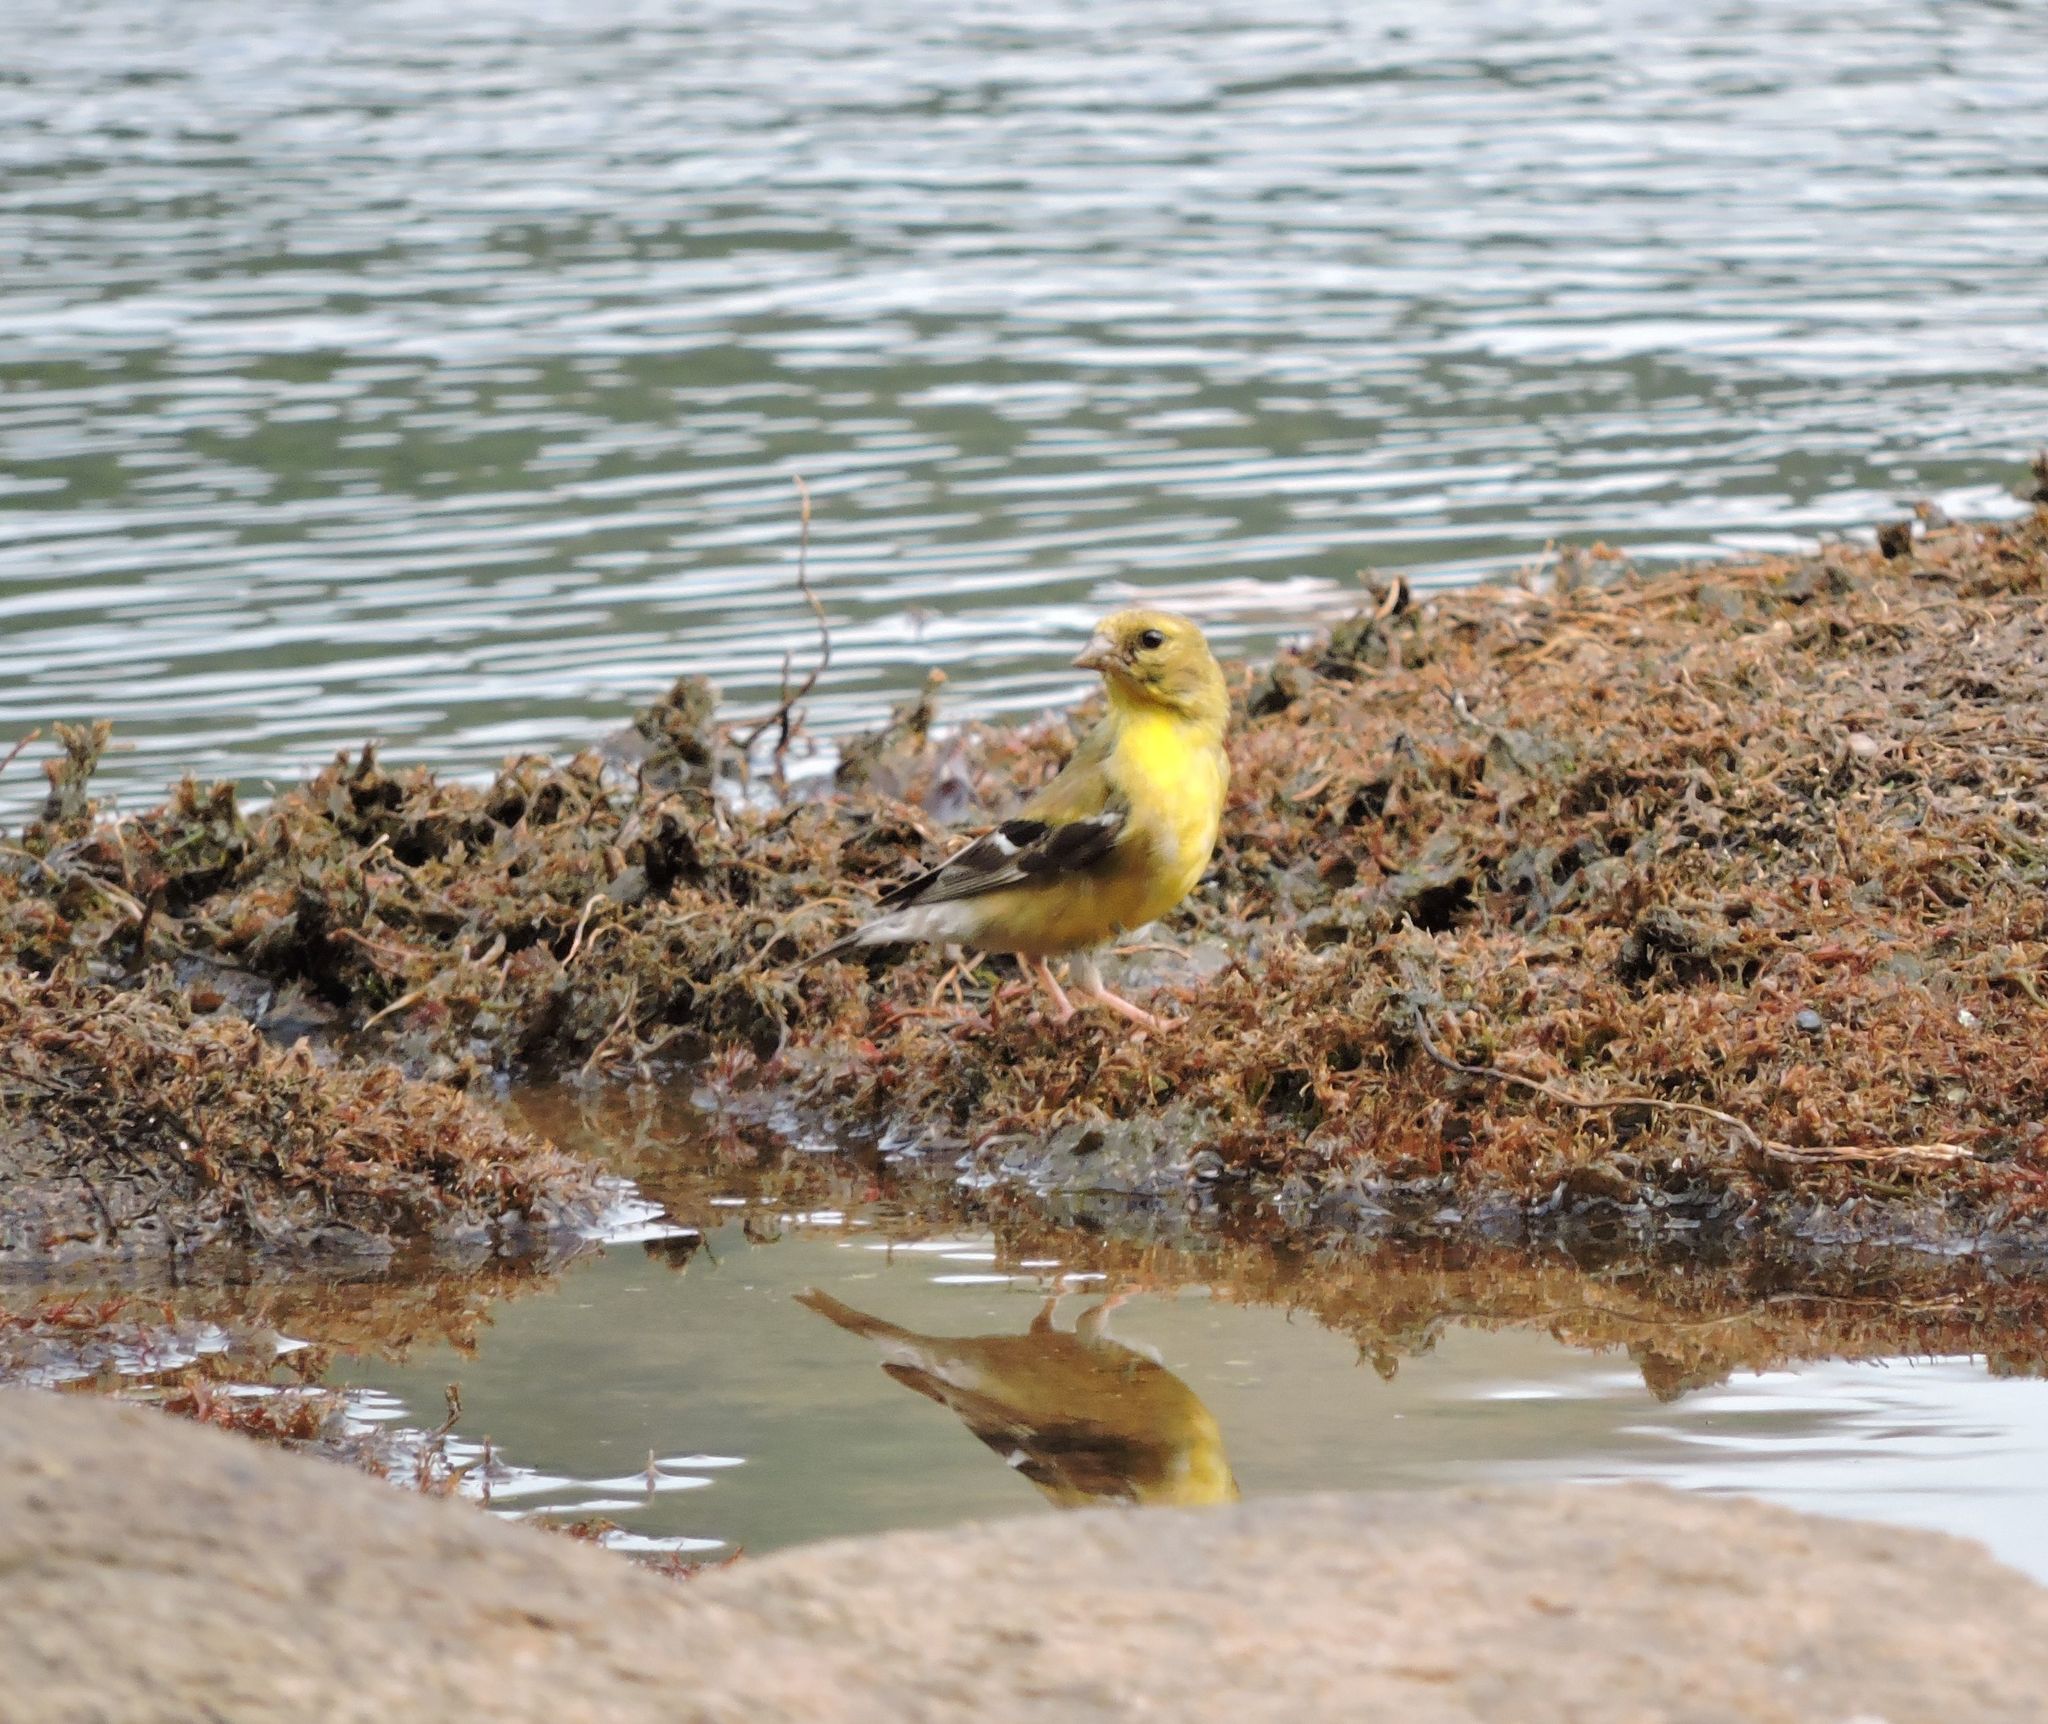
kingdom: Animalia
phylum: Chordata
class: Aves
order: Passeriformes
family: Fringillidae
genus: Spinus
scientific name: Spinus tristis
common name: American goldfinch
